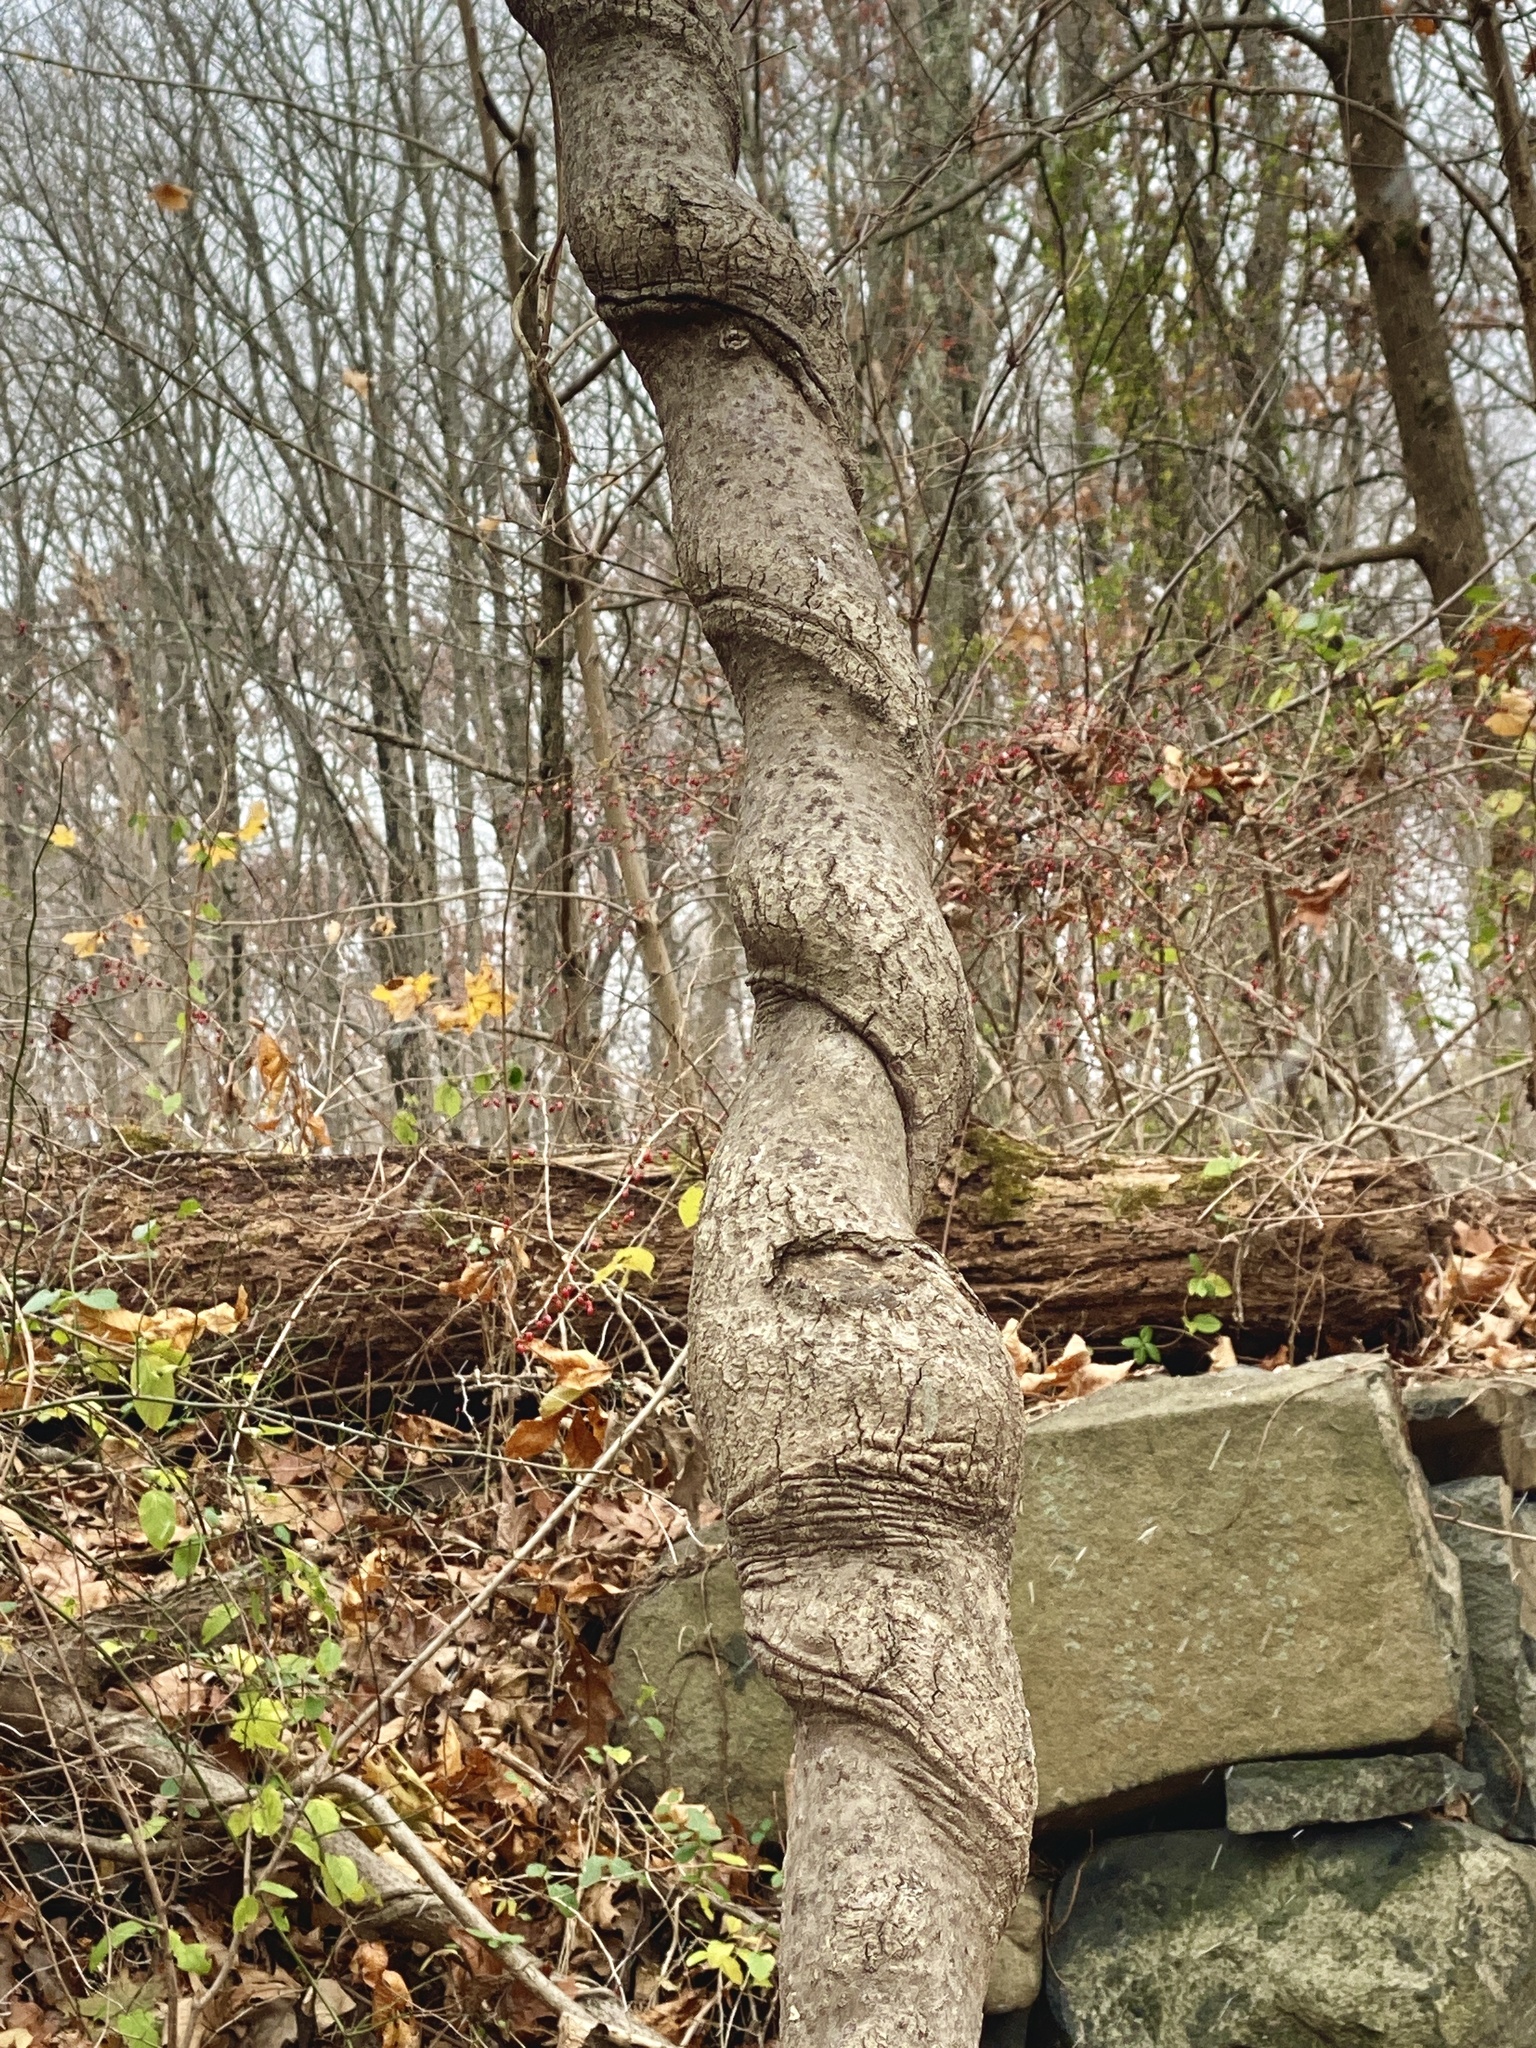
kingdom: Plantae
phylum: Tracheophyta
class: Magnoliopsida
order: Dipsacales
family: Caprifoliaceae
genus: Lonicera
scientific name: Lonicera japonica
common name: Japanese honeysuckle
